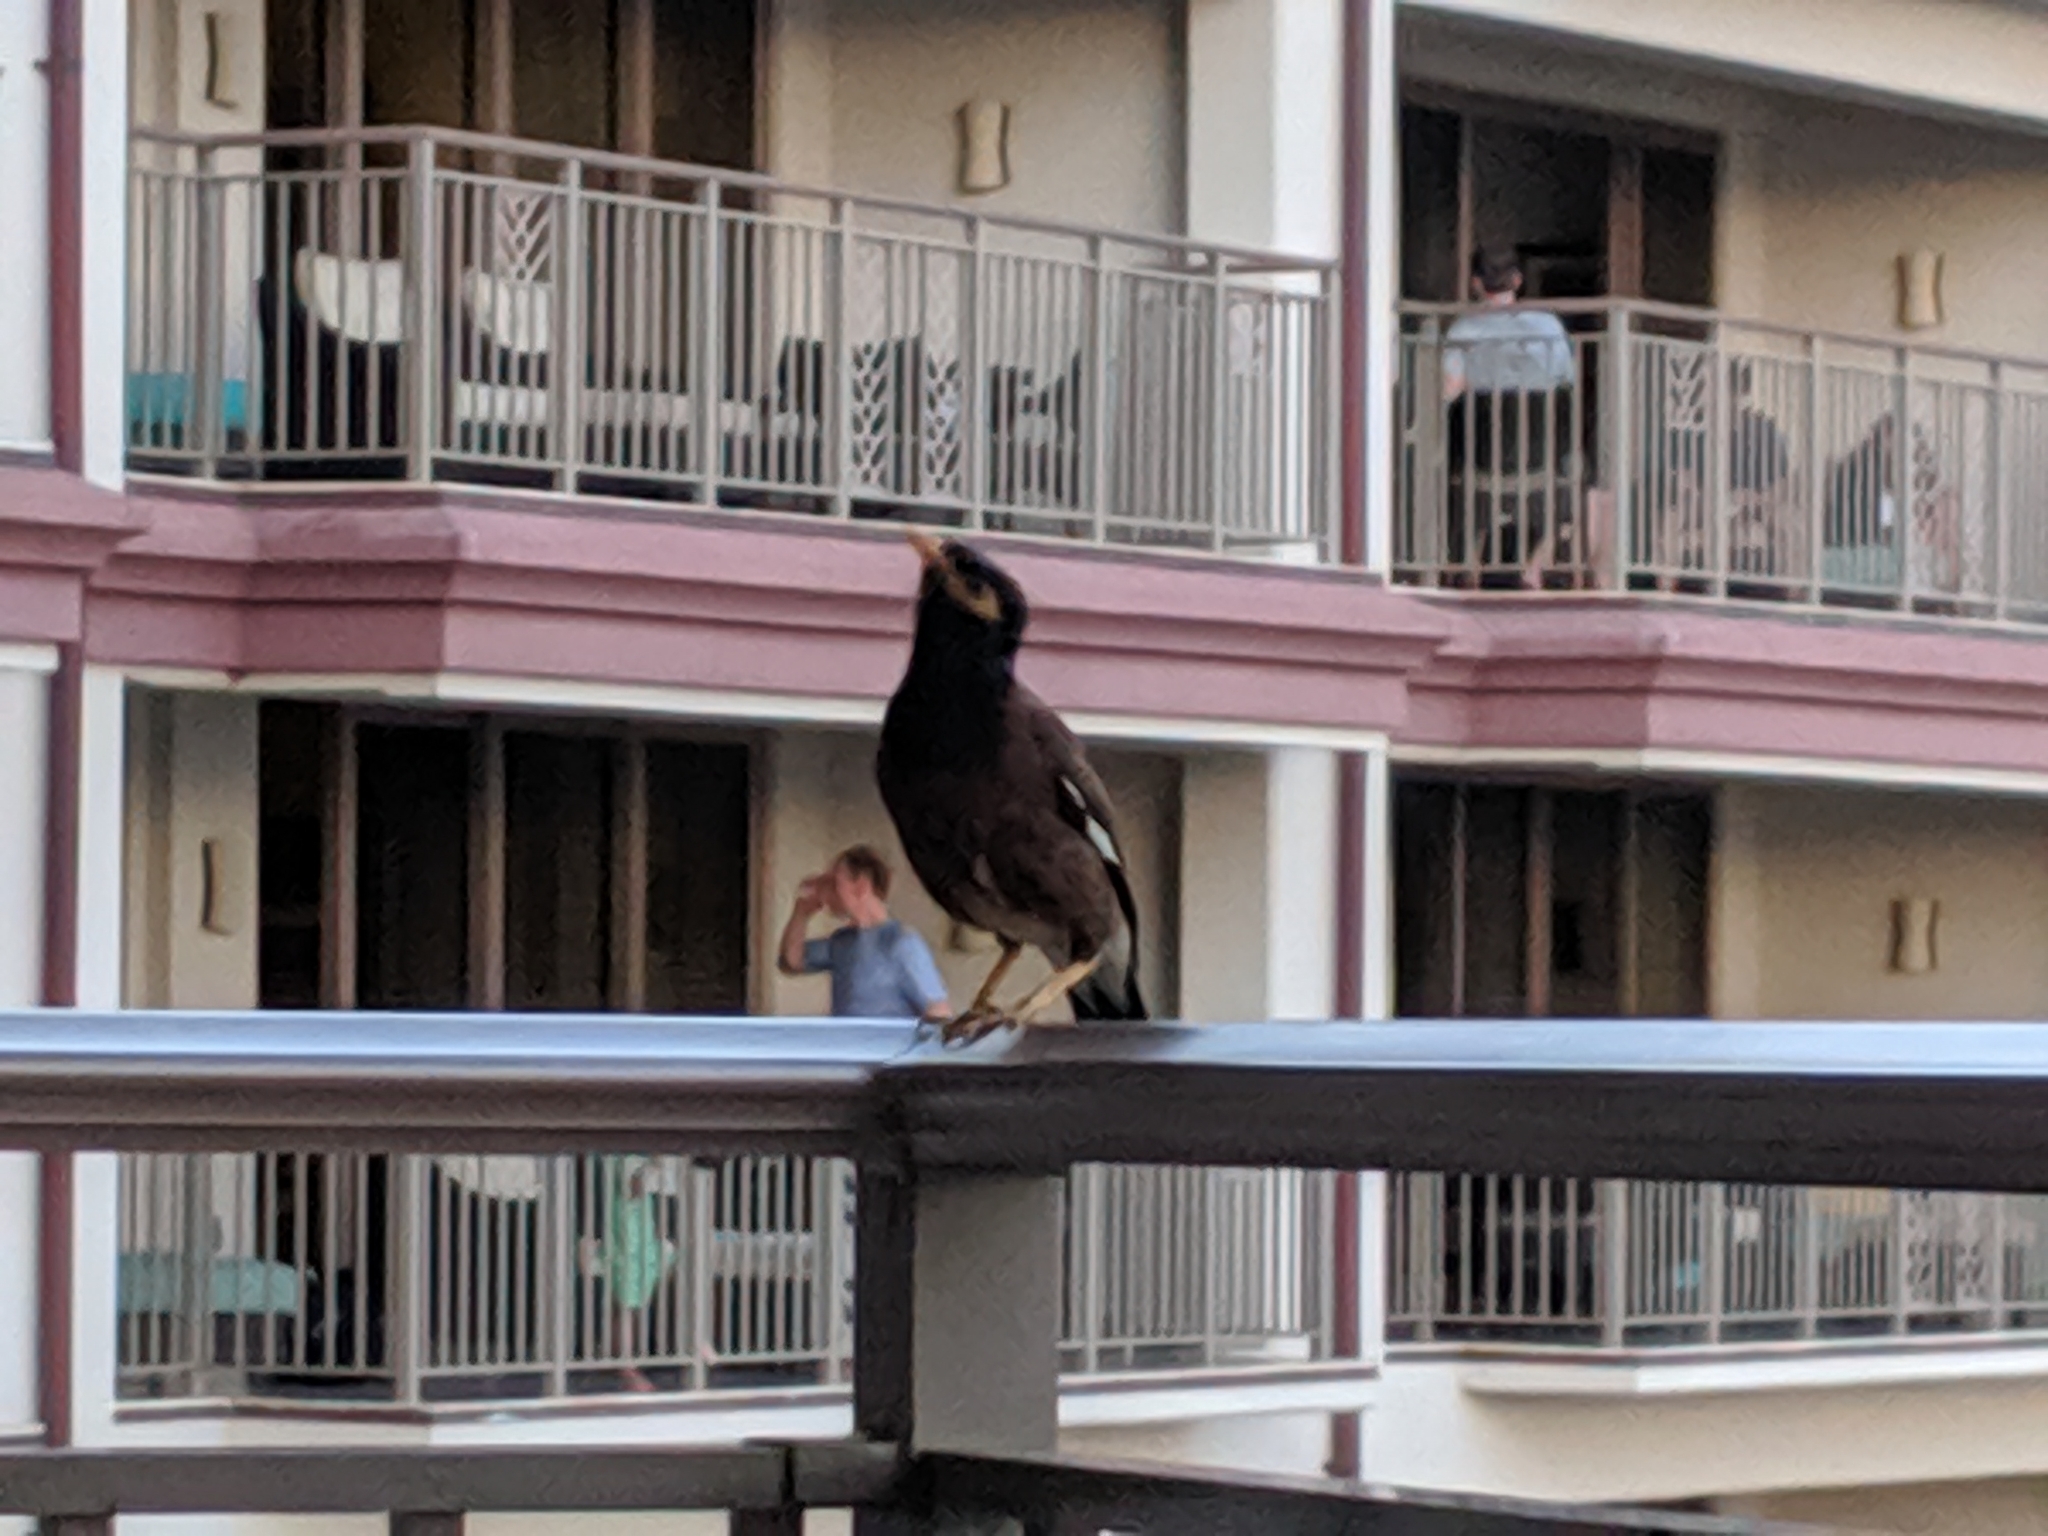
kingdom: Animalia
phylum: Chordata
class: Aves
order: Passeriformes
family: Sturnidae
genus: Acridotheres
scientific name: Acridotheres tristis
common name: Common myna
